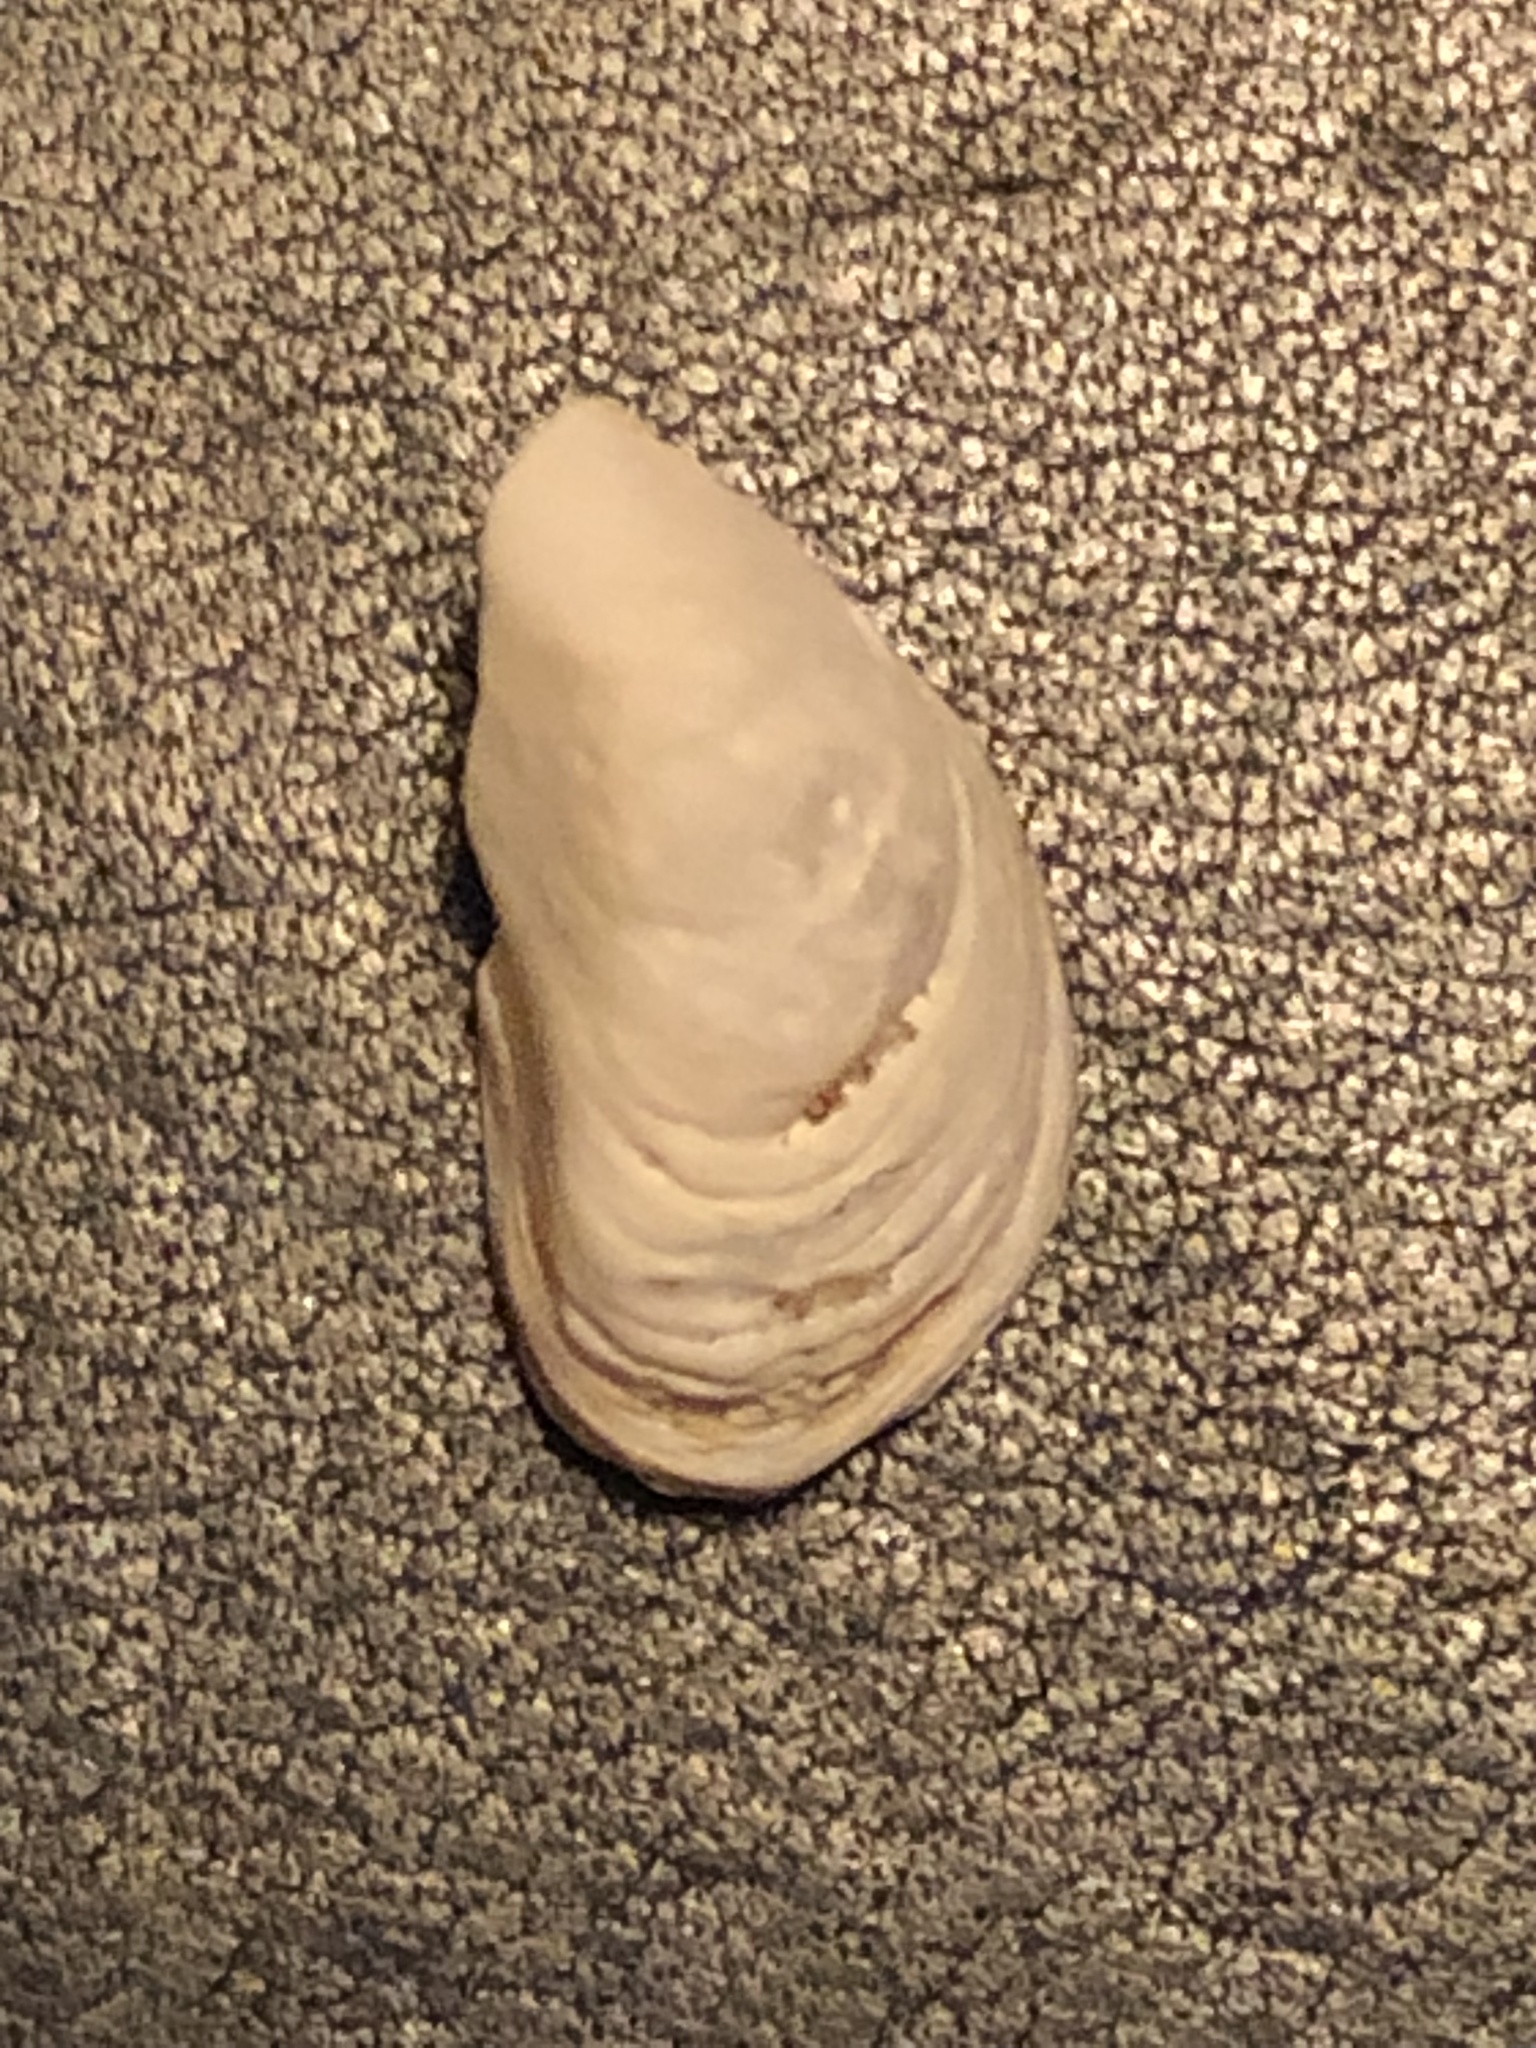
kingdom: Animalia
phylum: Mollusca
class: Bivalvia
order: Myida
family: Dreissenidae
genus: Dreissena
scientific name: Dreissena bugensis
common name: Quagga mussel
